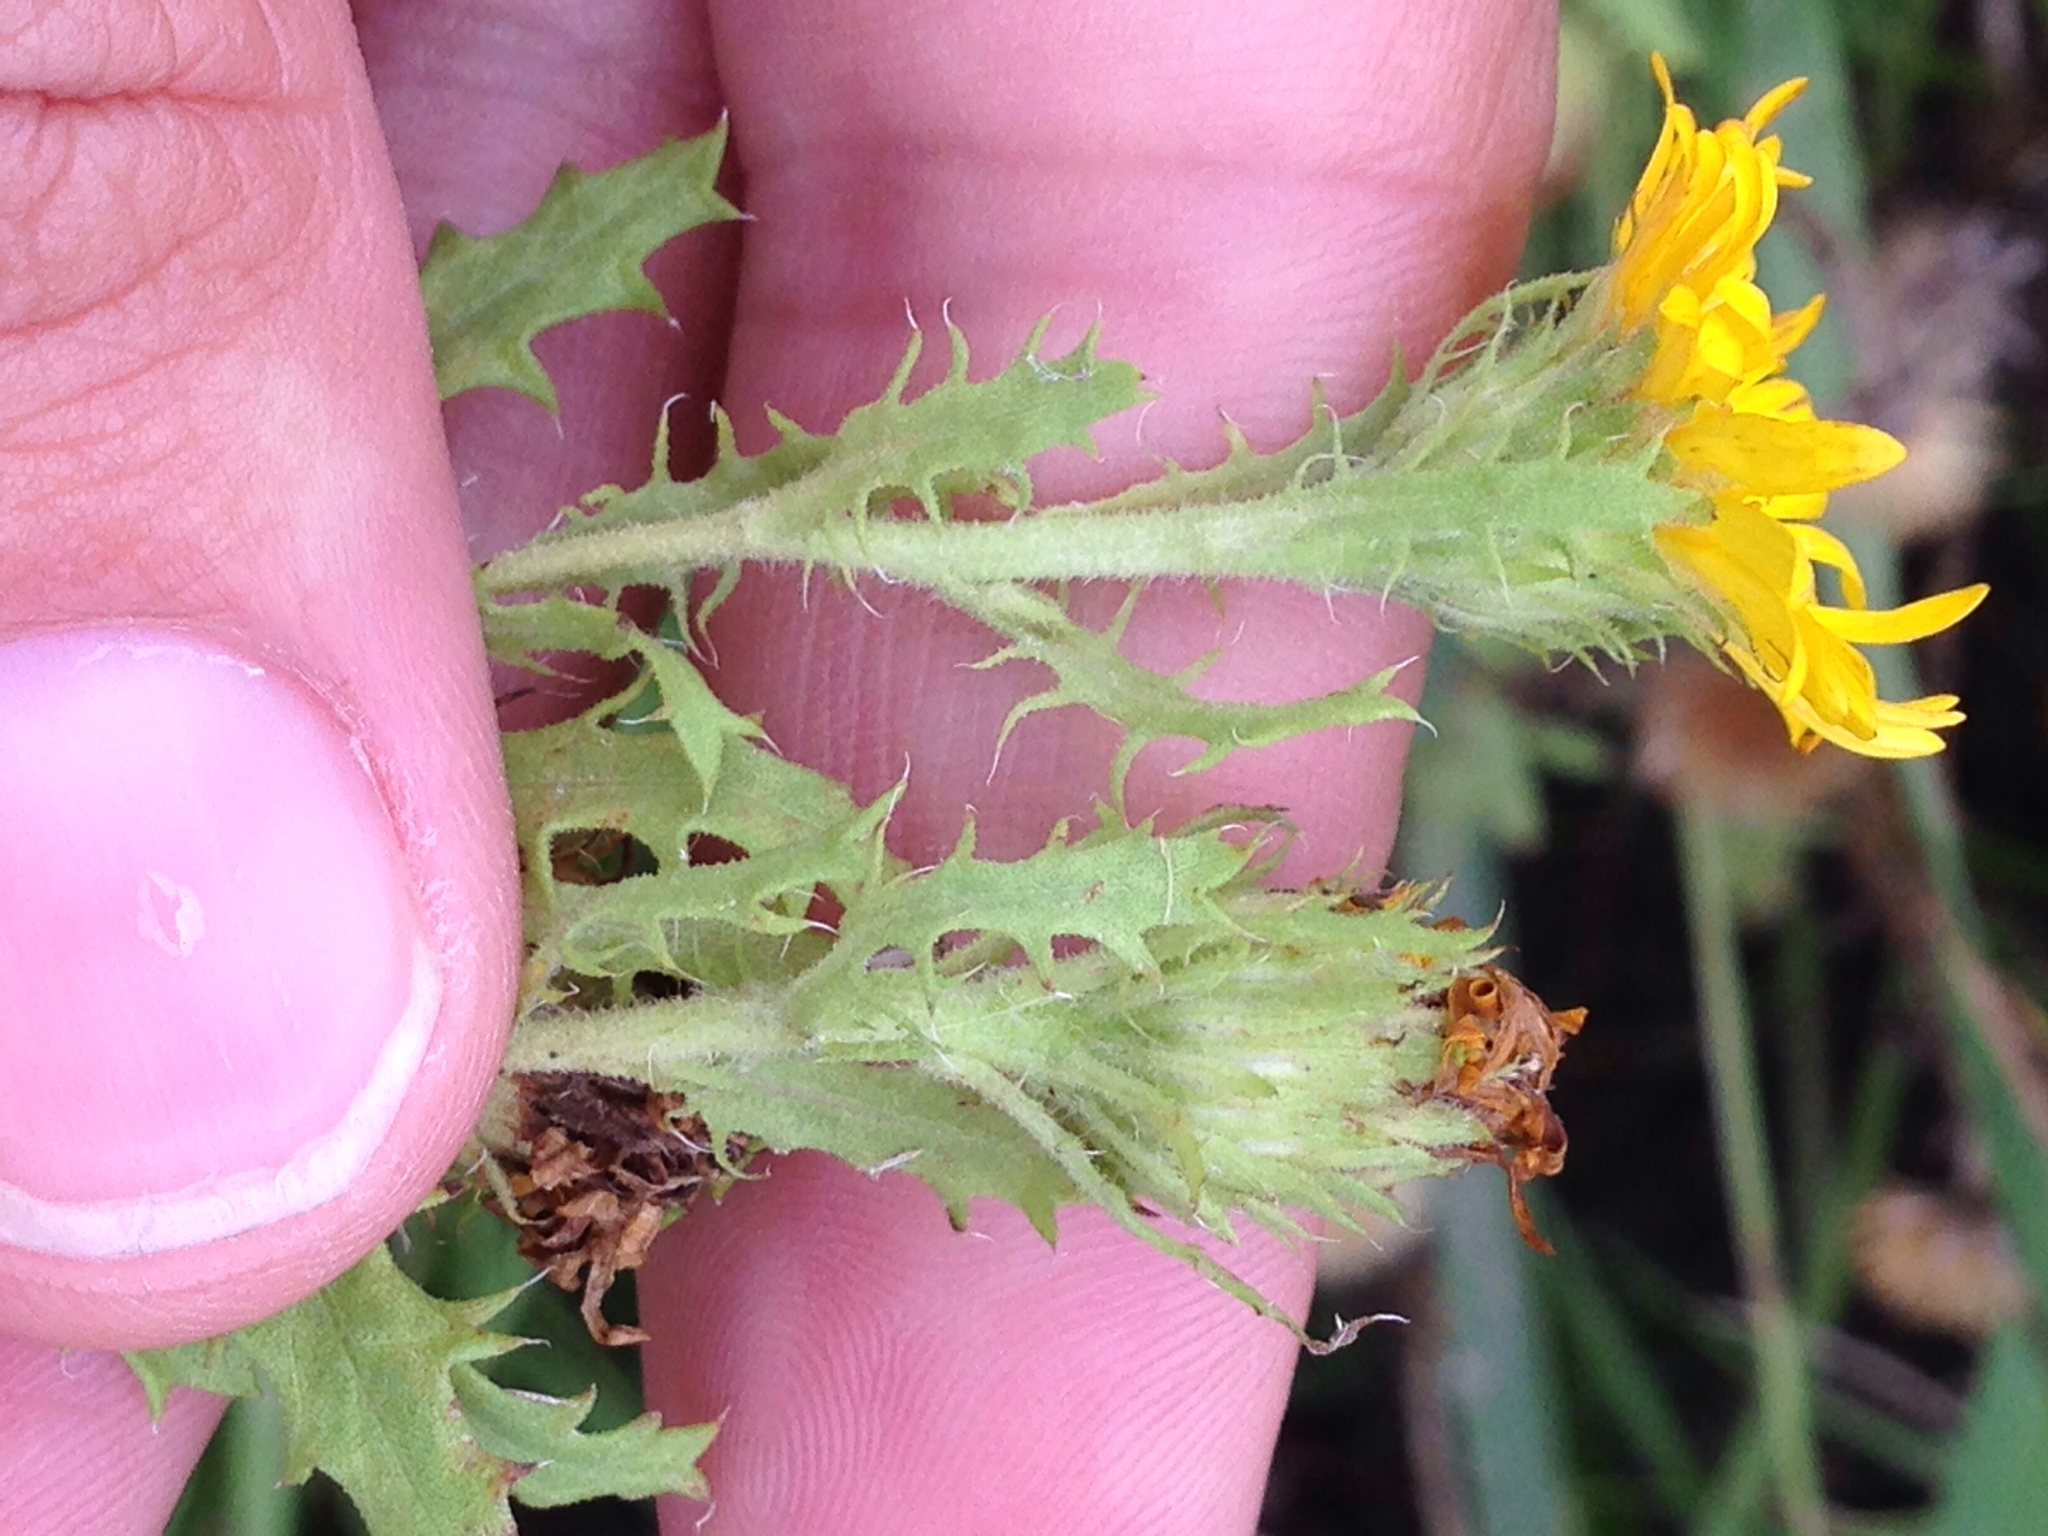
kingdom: Plantae
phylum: Tracheophyta
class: Magnoliopsida
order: Asterales
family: Asteraceae
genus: Heterotheca
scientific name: Heterotheca subaxillaris
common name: Camphorweed
